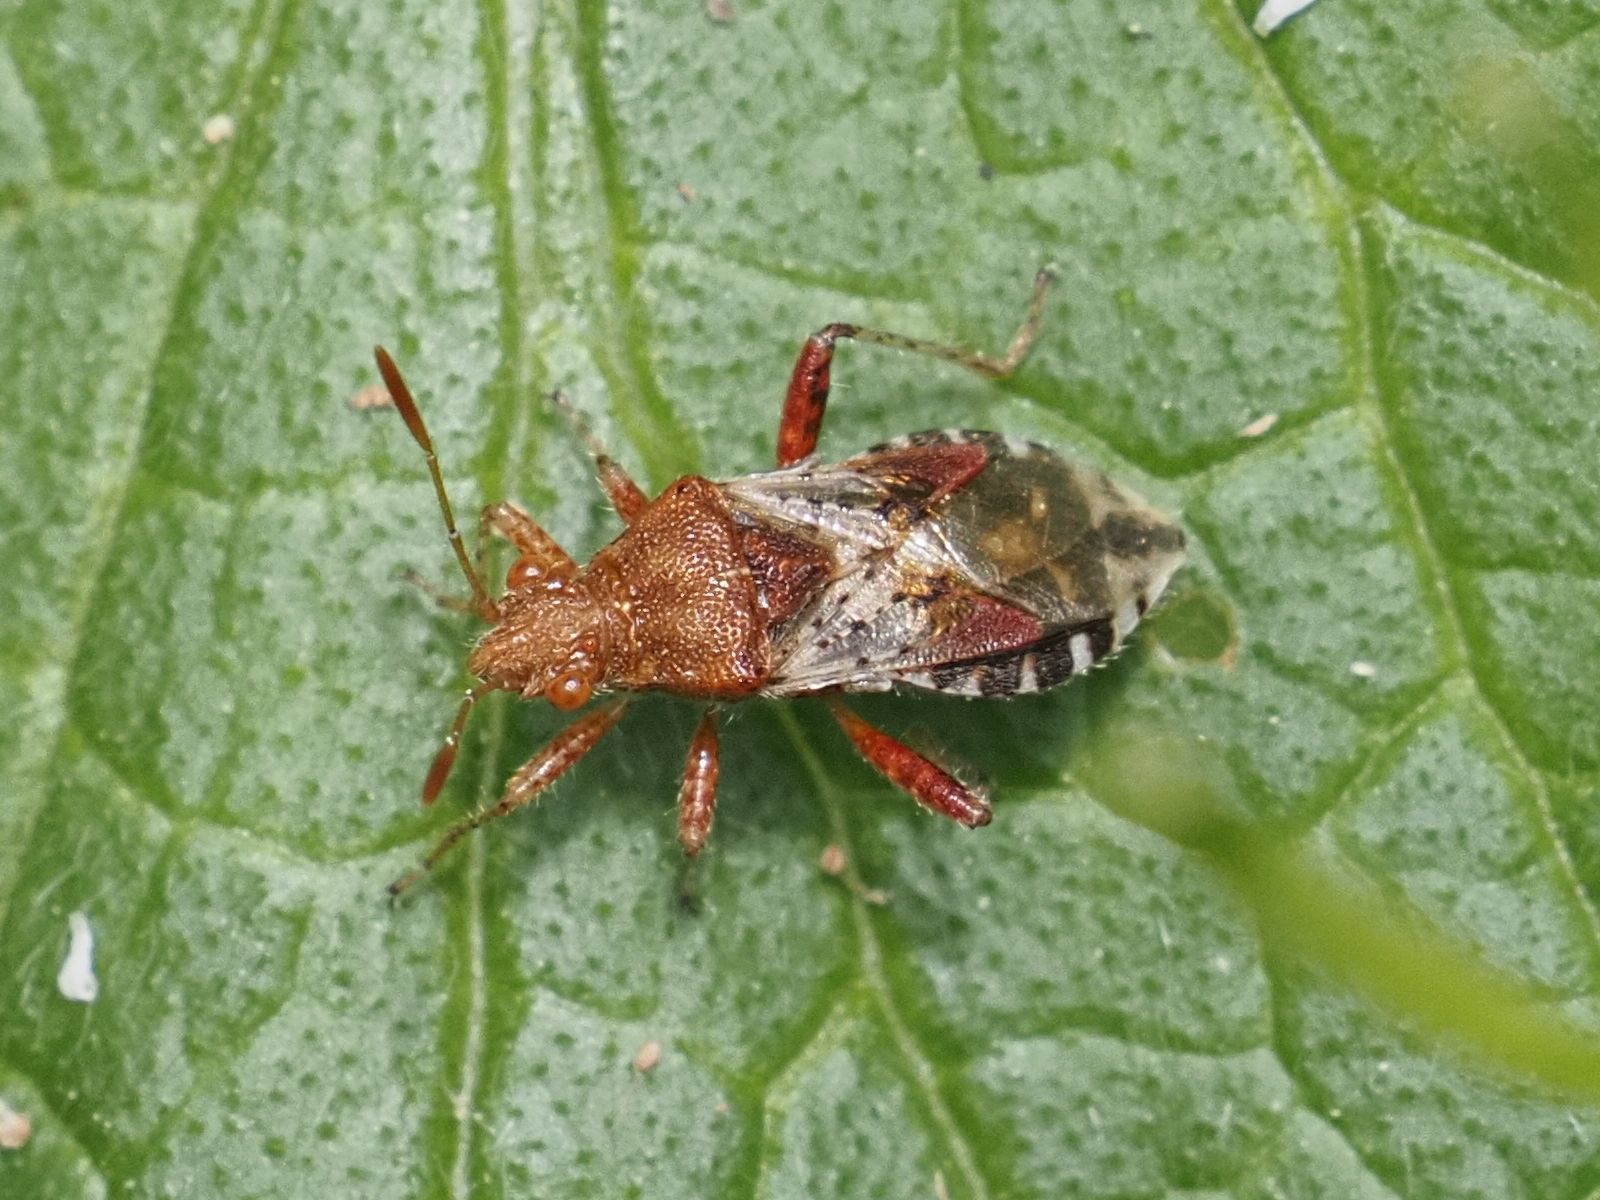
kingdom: Animalia
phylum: Arthropoda
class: Insecta
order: Hemiptera
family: Rhopalidae
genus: Rhopalus
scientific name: Rhopalus subrufus
